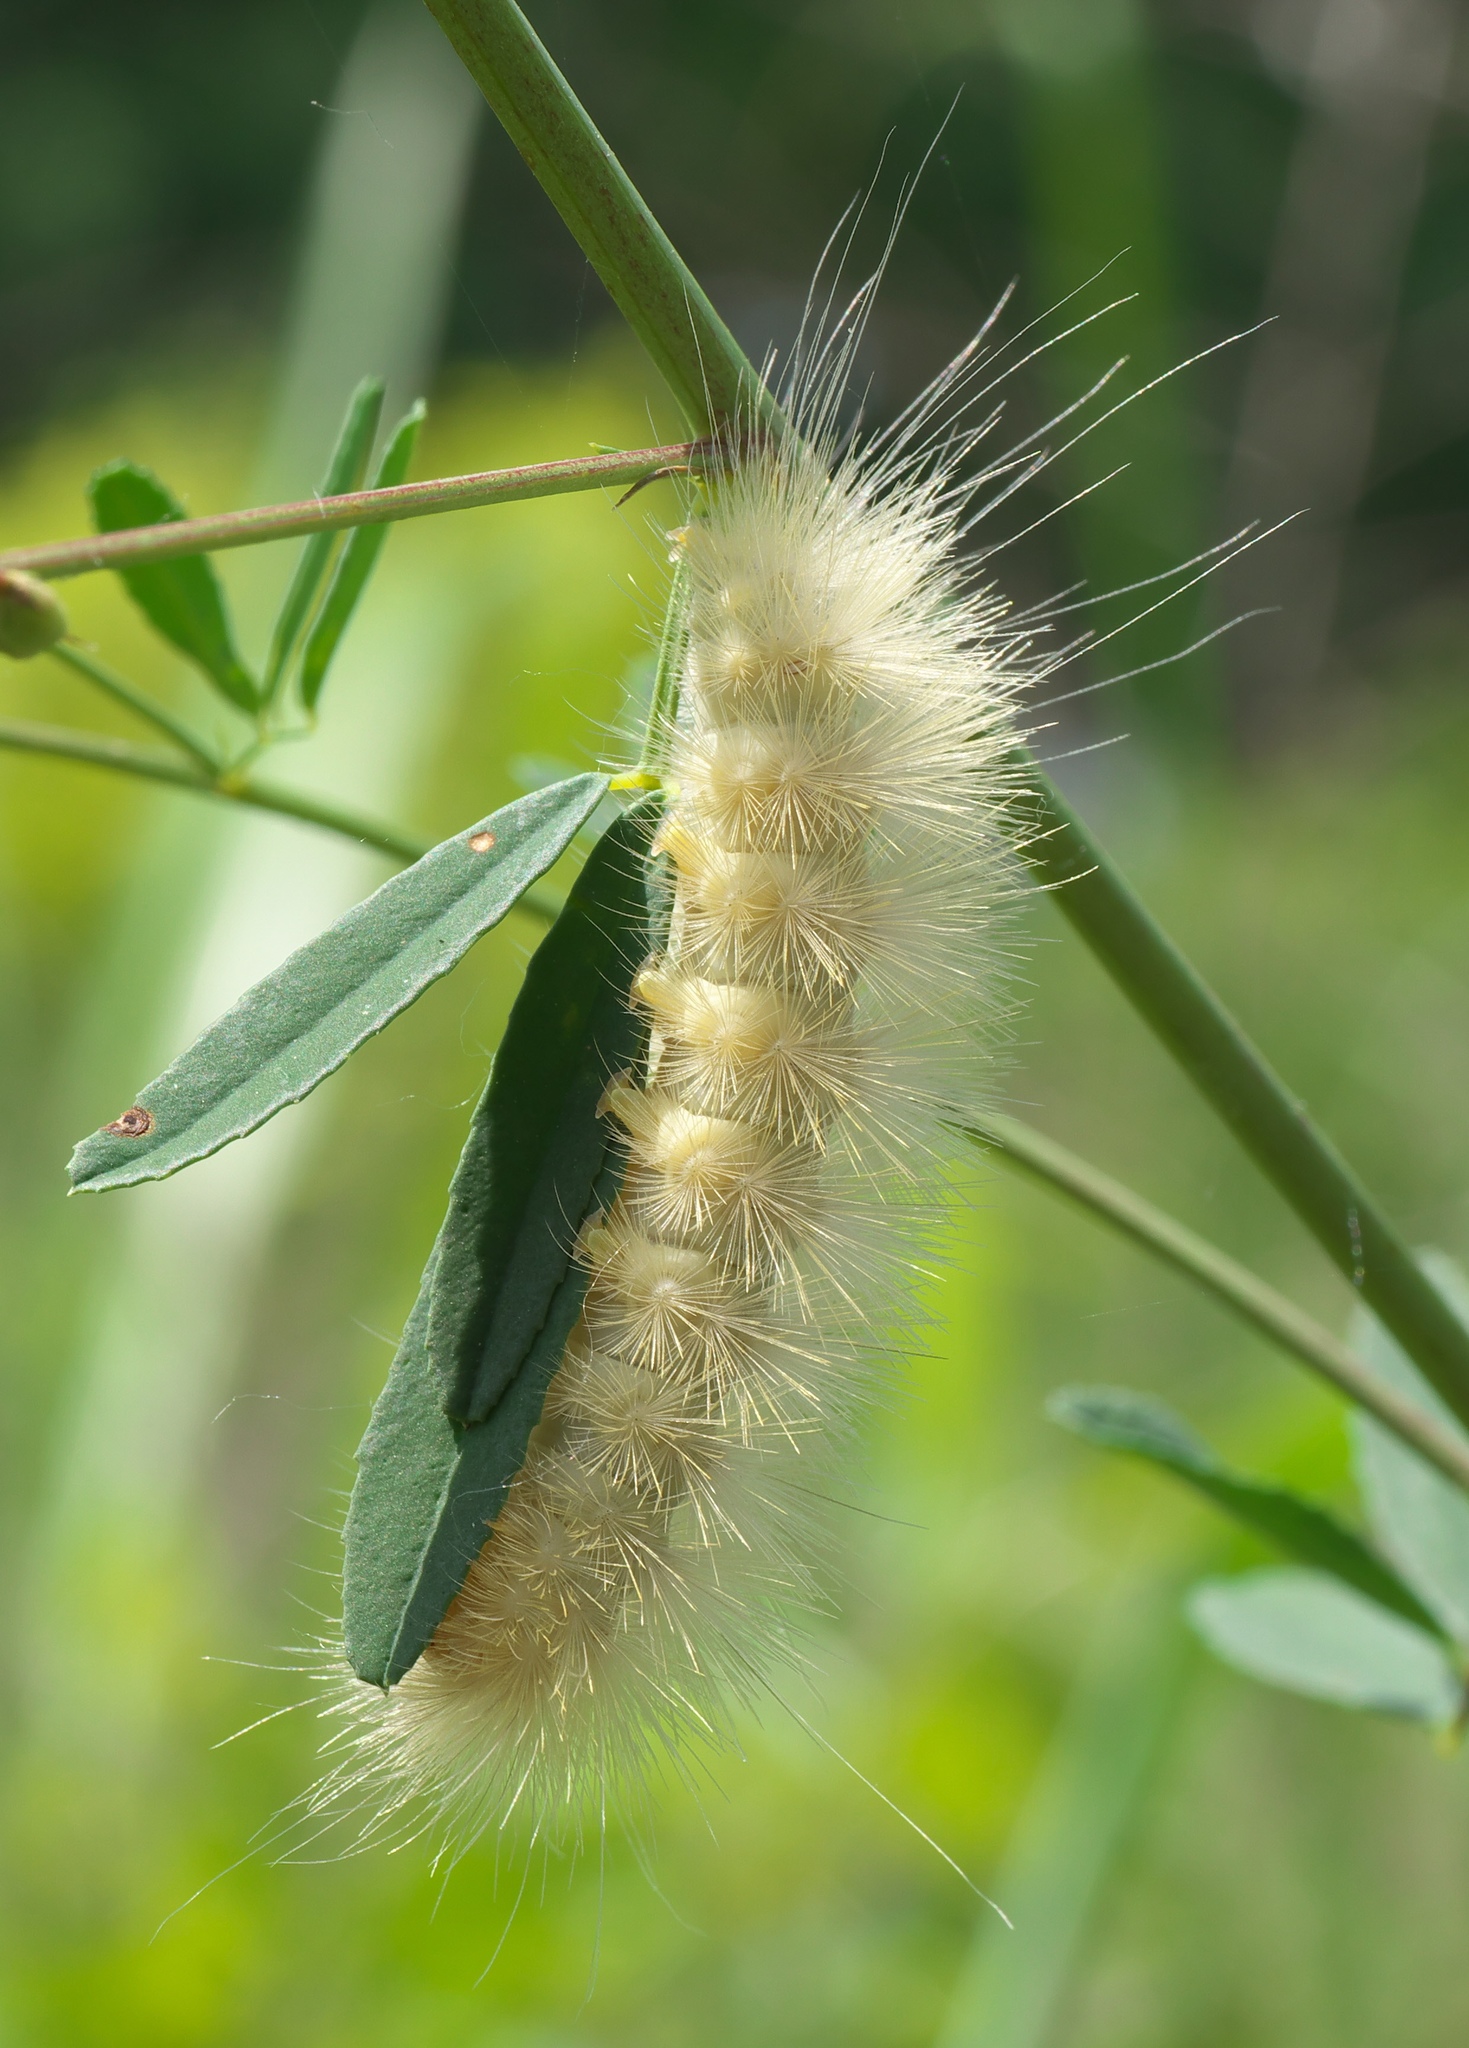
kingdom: Animalia
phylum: Arthropoda
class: Insecta
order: Lepidoptera
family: Erebidae
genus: Spilosoma
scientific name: Spilosoma virginica
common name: Virginia tiger moth
